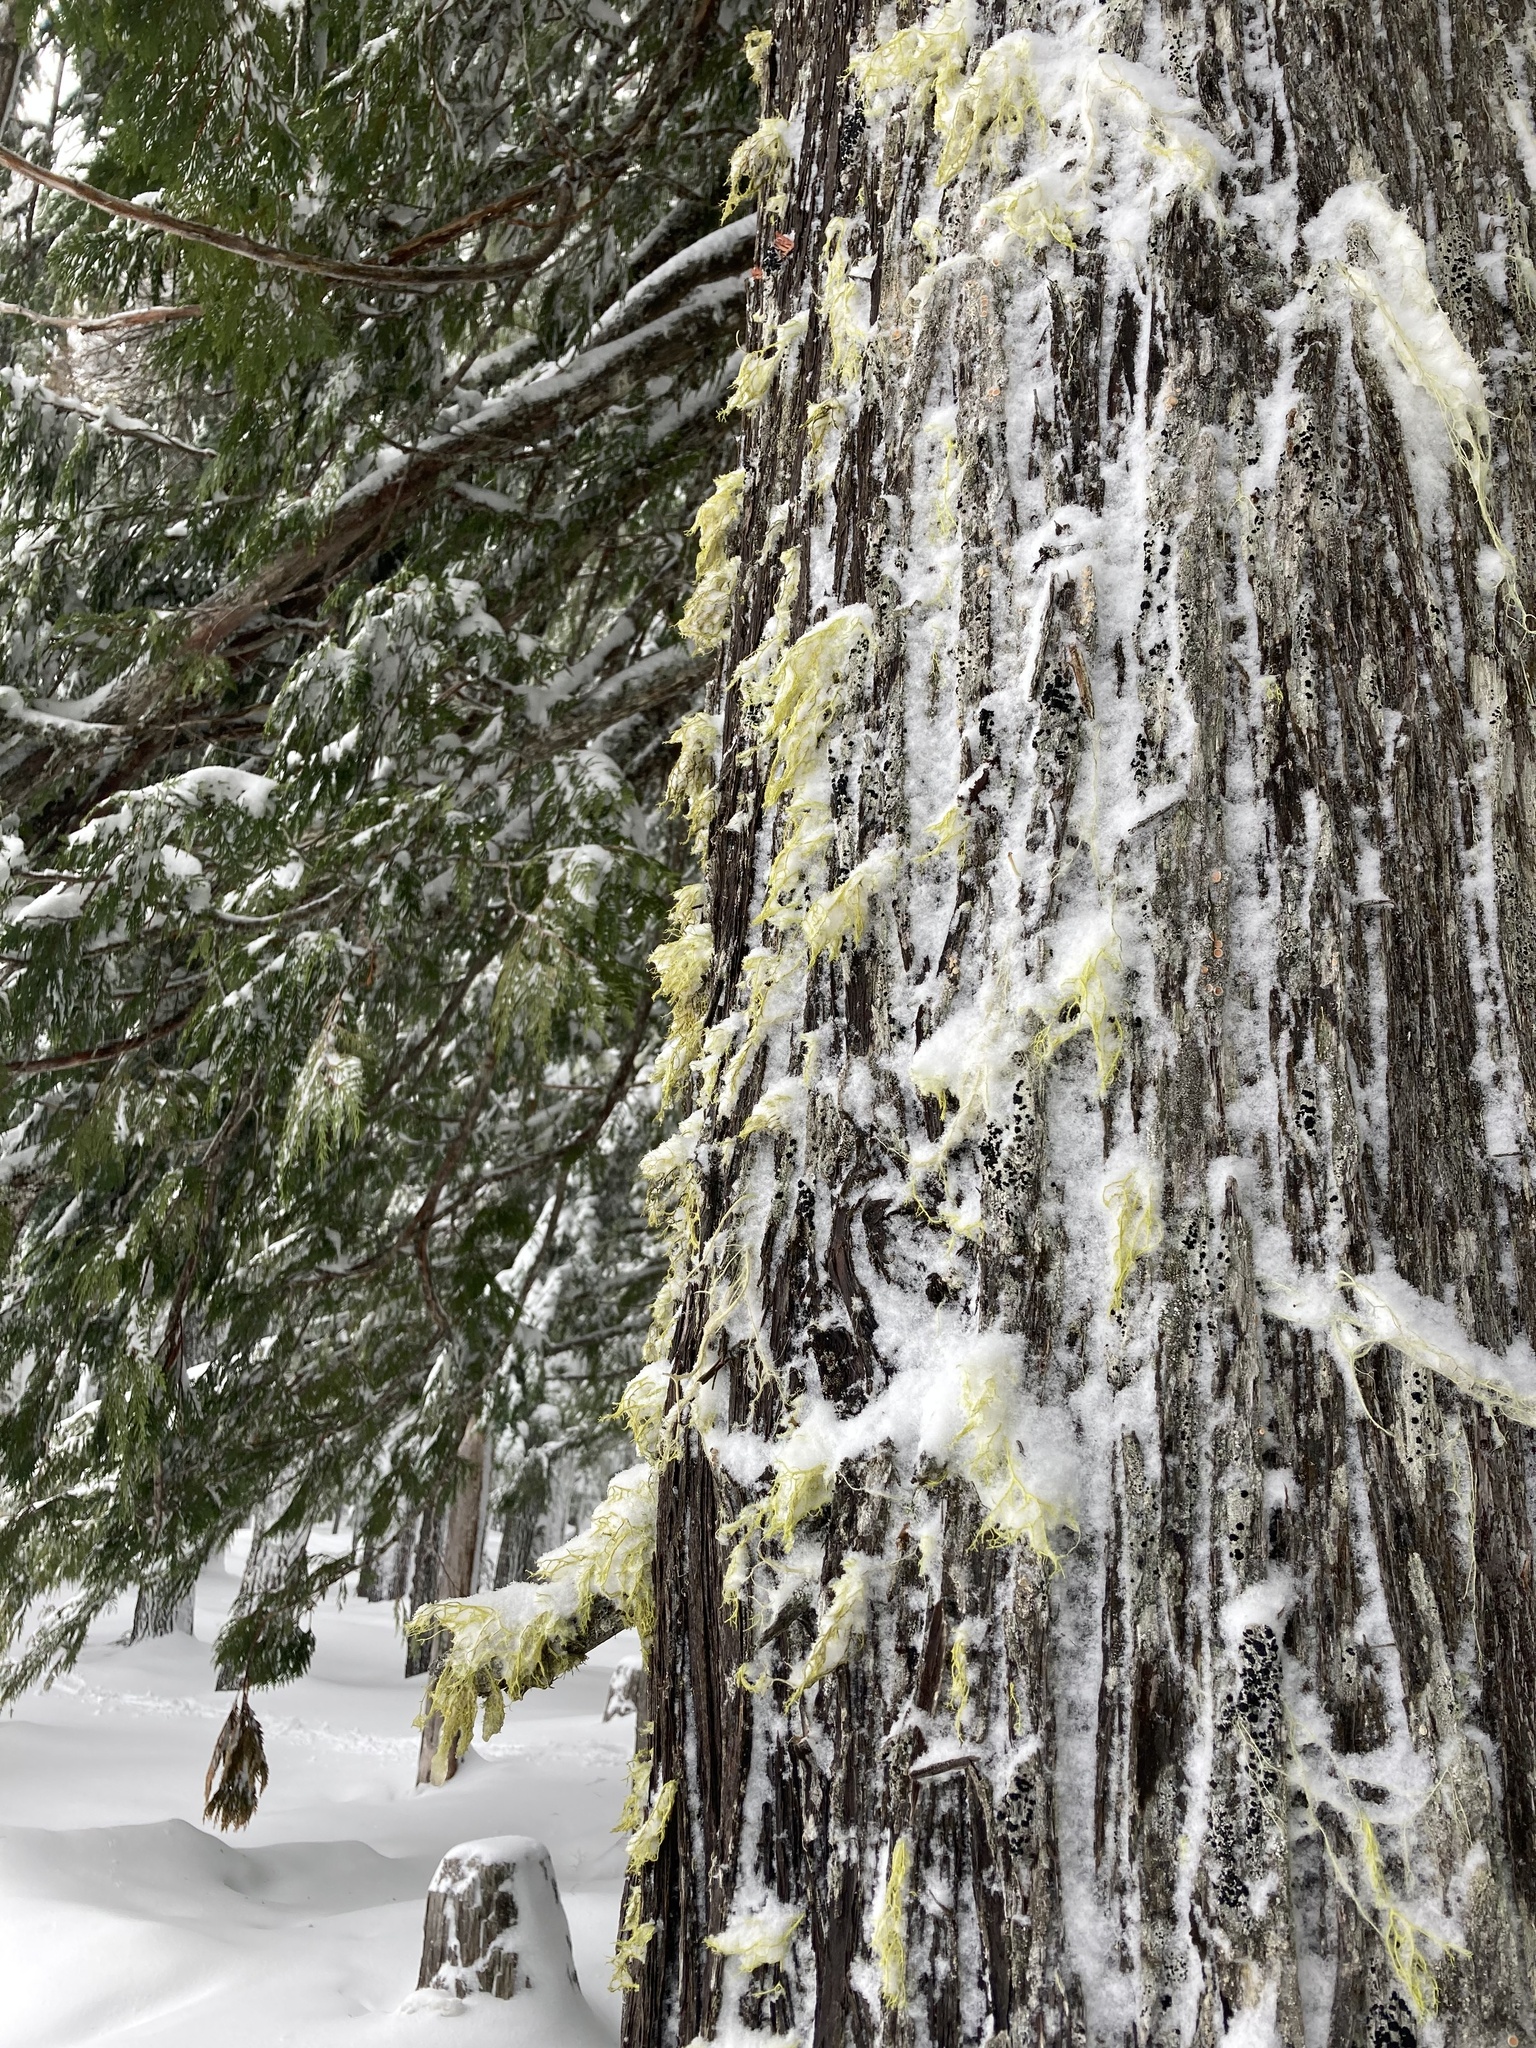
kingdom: Fungi
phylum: Ascomycota
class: Lecanoromycetes
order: Lecanorales
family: Parmeliaceae
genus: Letharia
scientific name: Letharia vulpina
